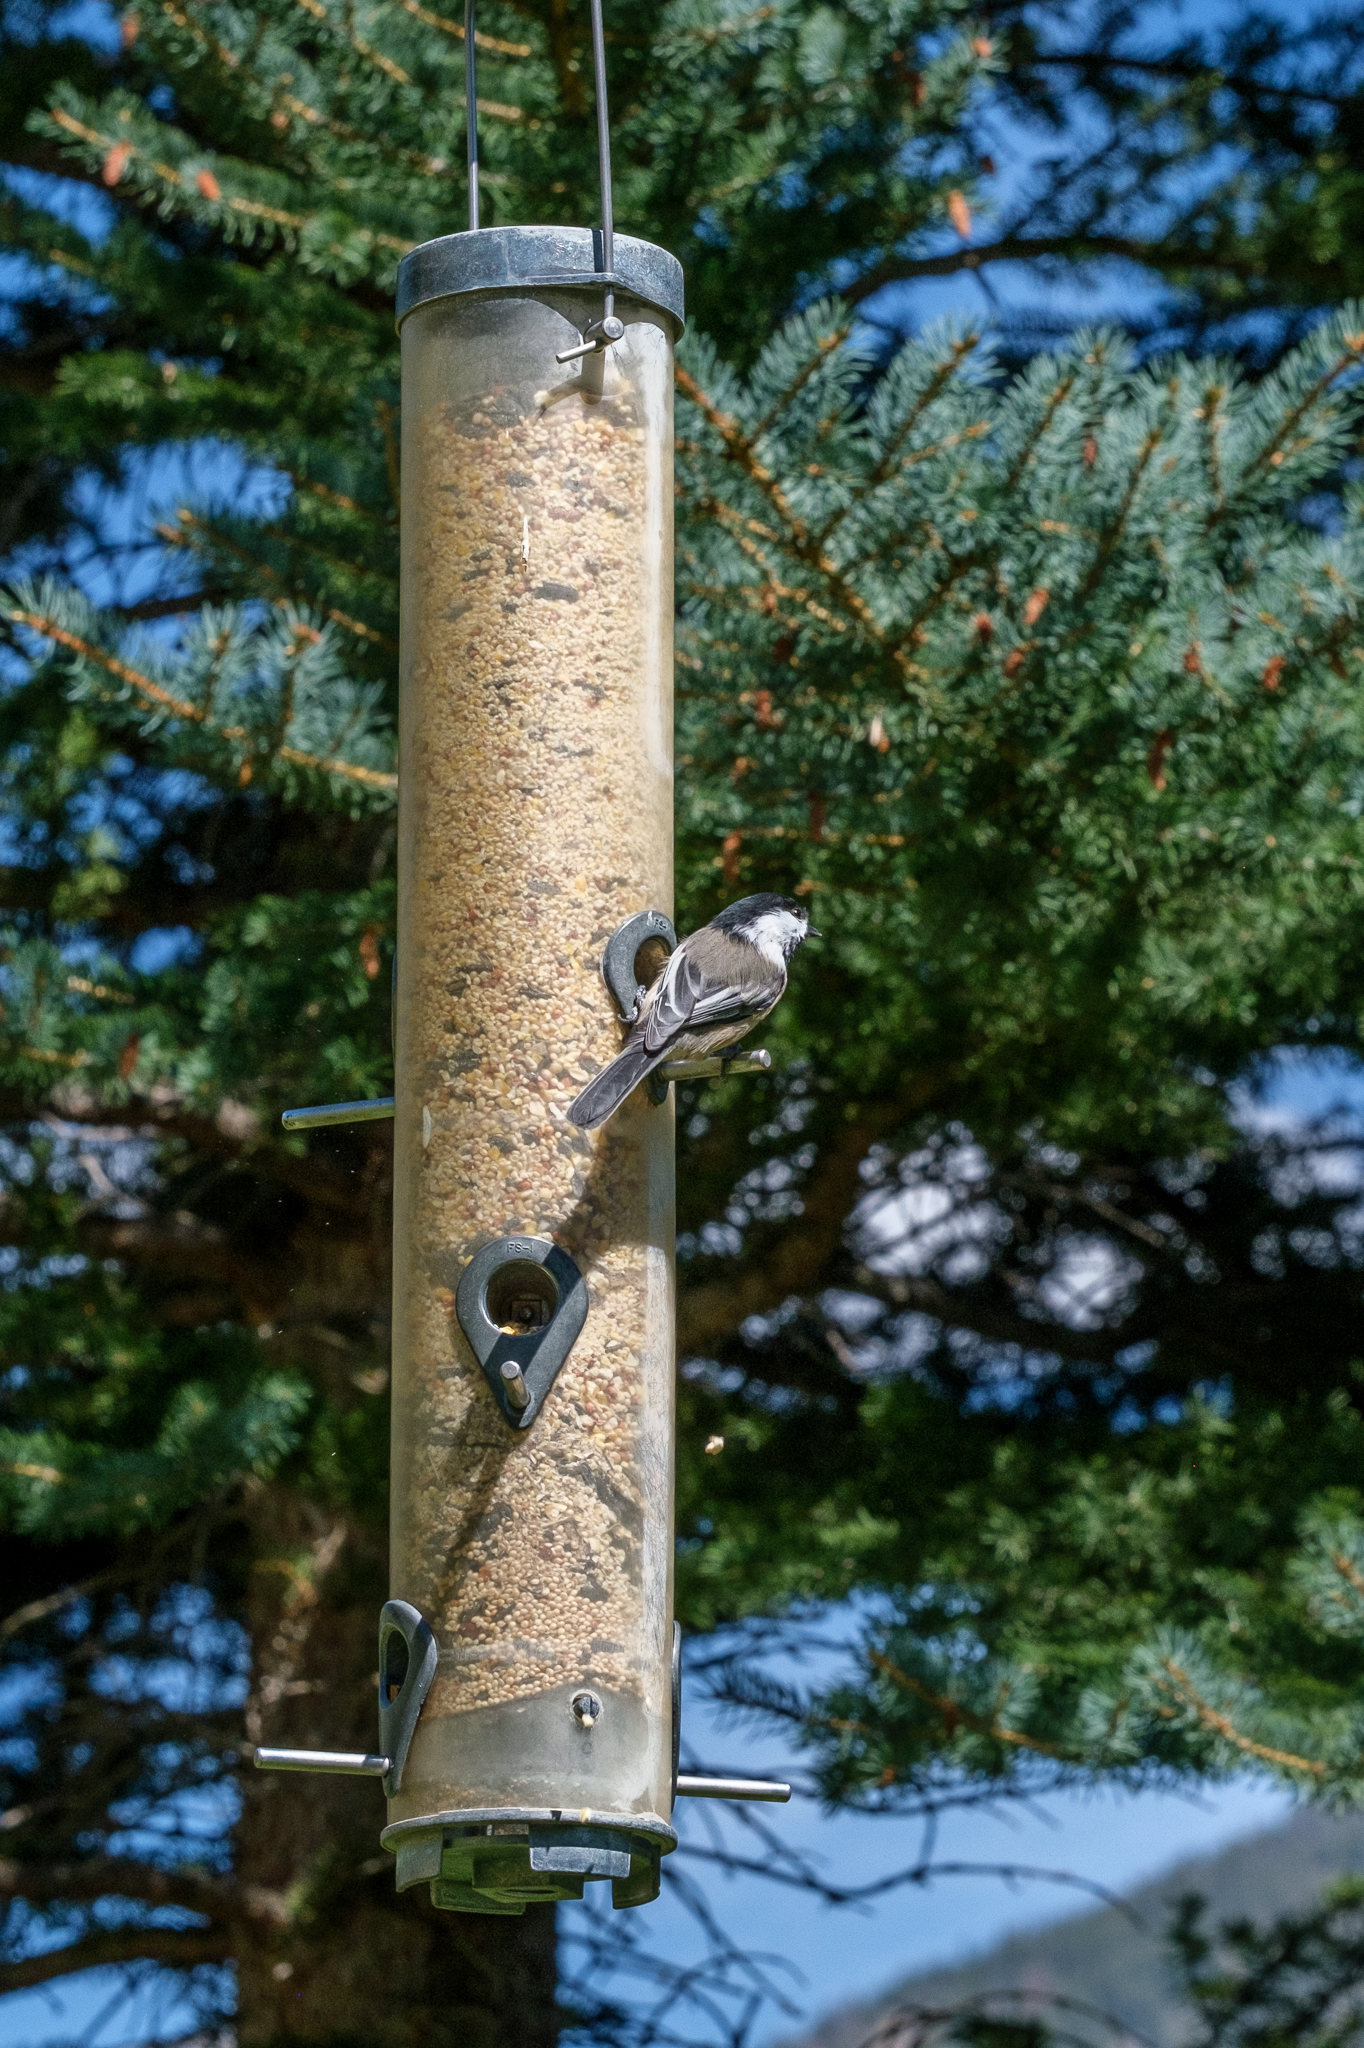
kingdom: Animalia
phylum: Chordata
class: Aves
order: Passeriformes
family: Paridae
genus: Poecile
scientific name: Poecile atricapillus
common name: Black-capped chickadee
